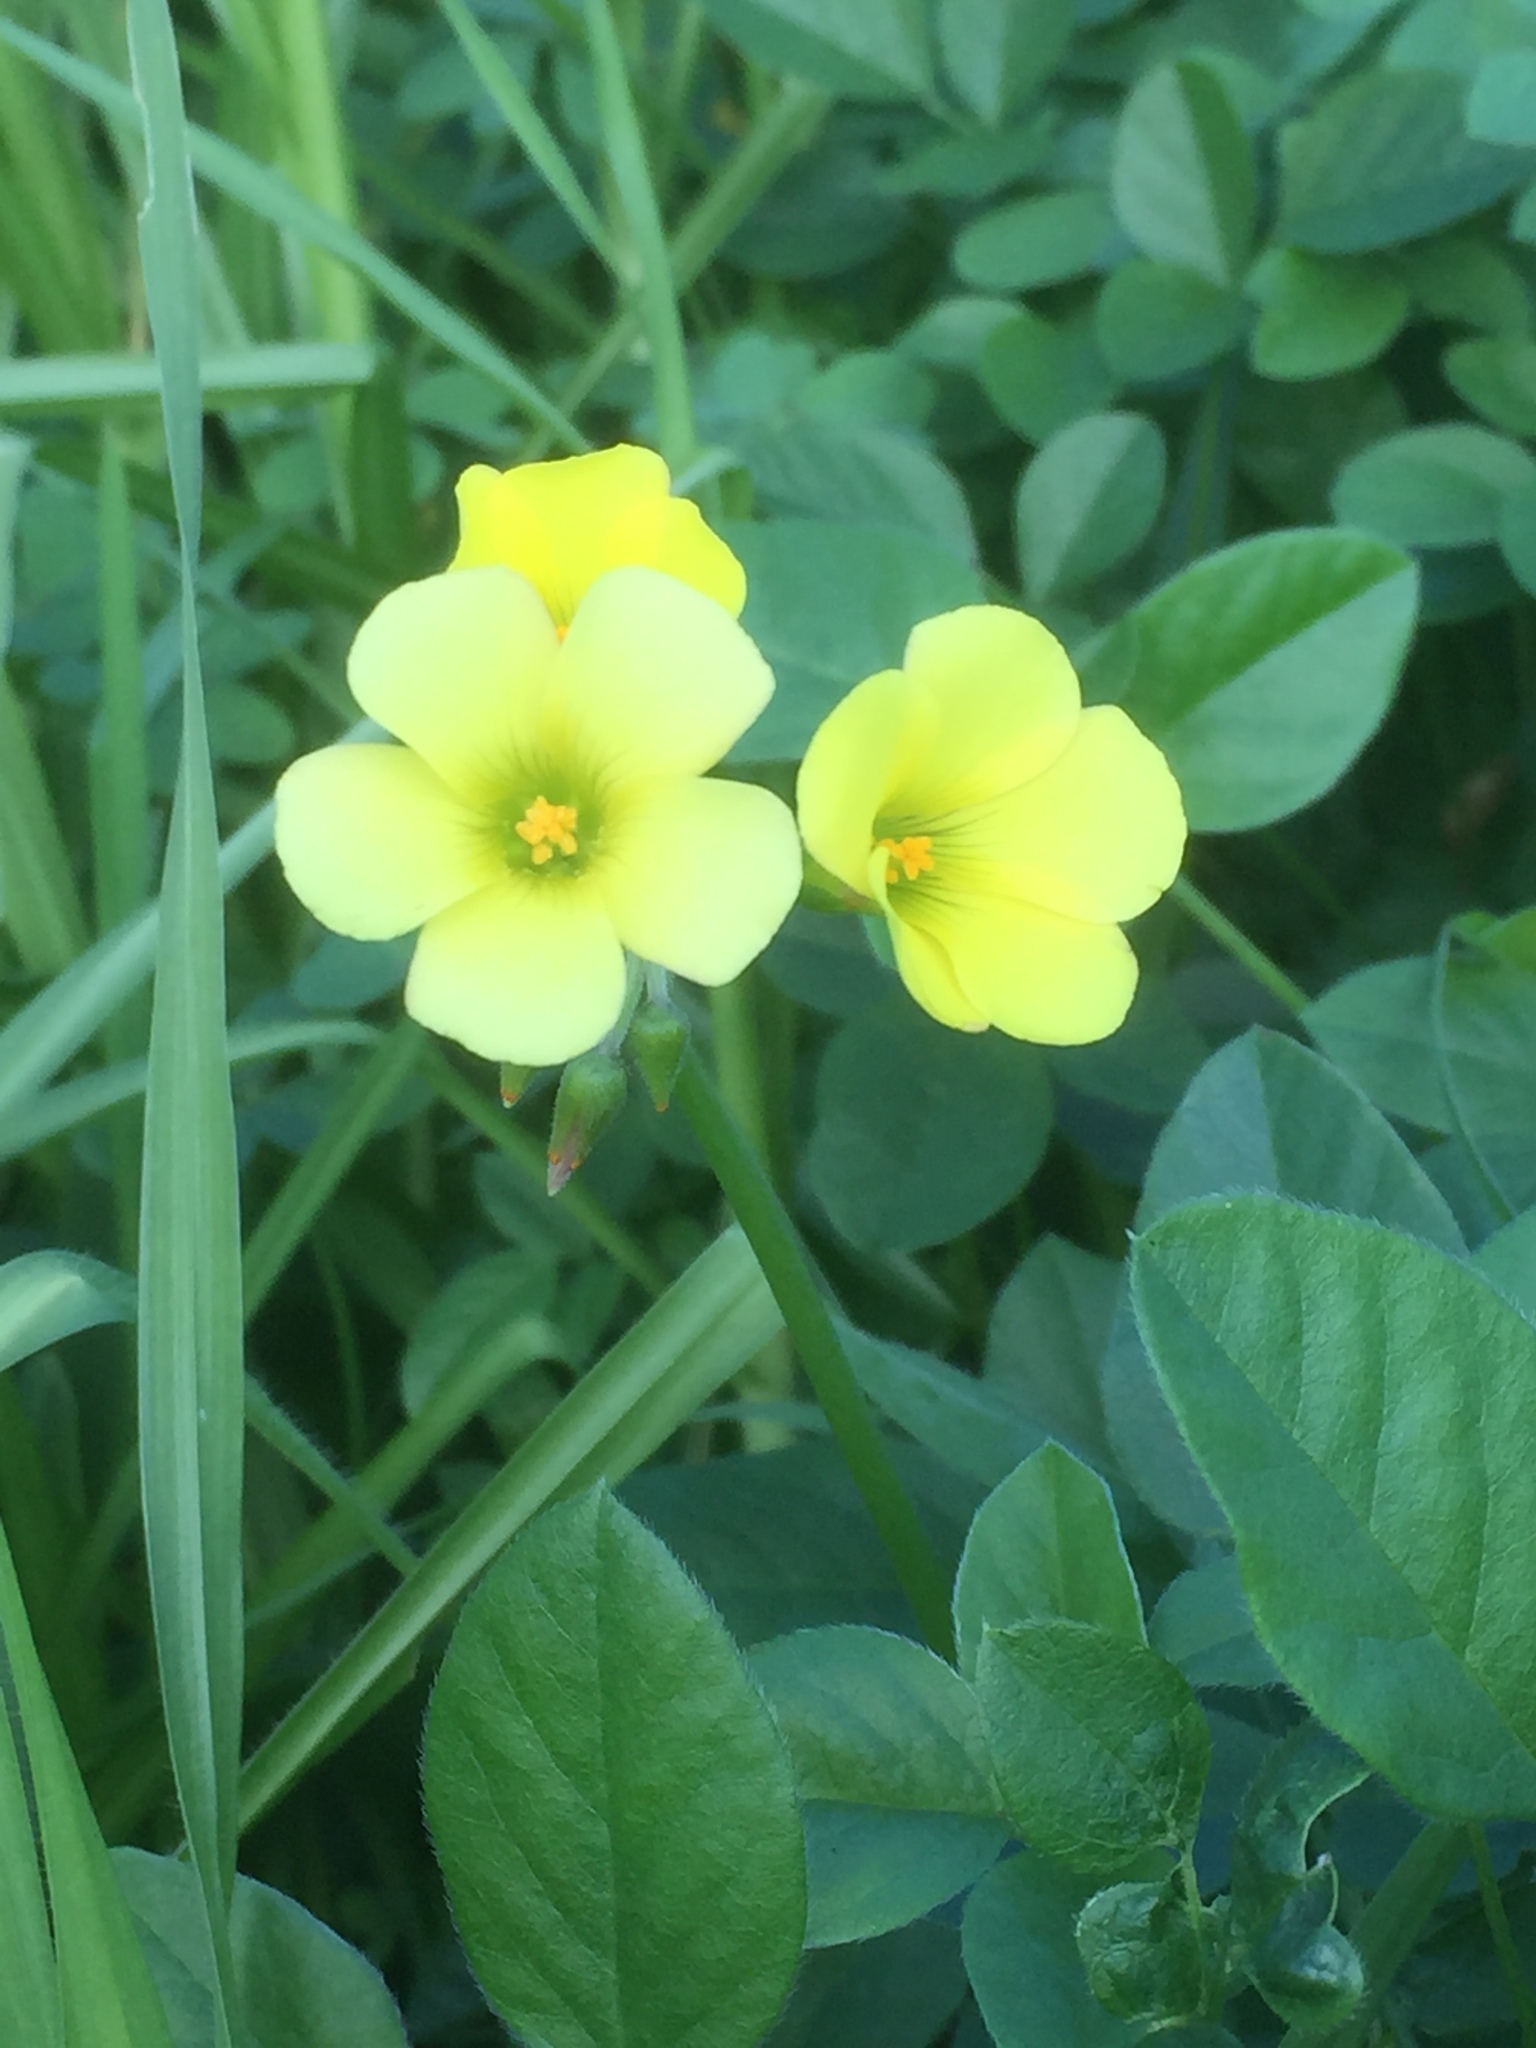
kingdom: Plantae
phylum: Tracheophyta
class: Magnoliopsida
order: Oxalidales
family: Oxalidaceae
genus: Oxalis
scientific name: Oxalis pes-caprae
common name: Bermuda-buttercup
